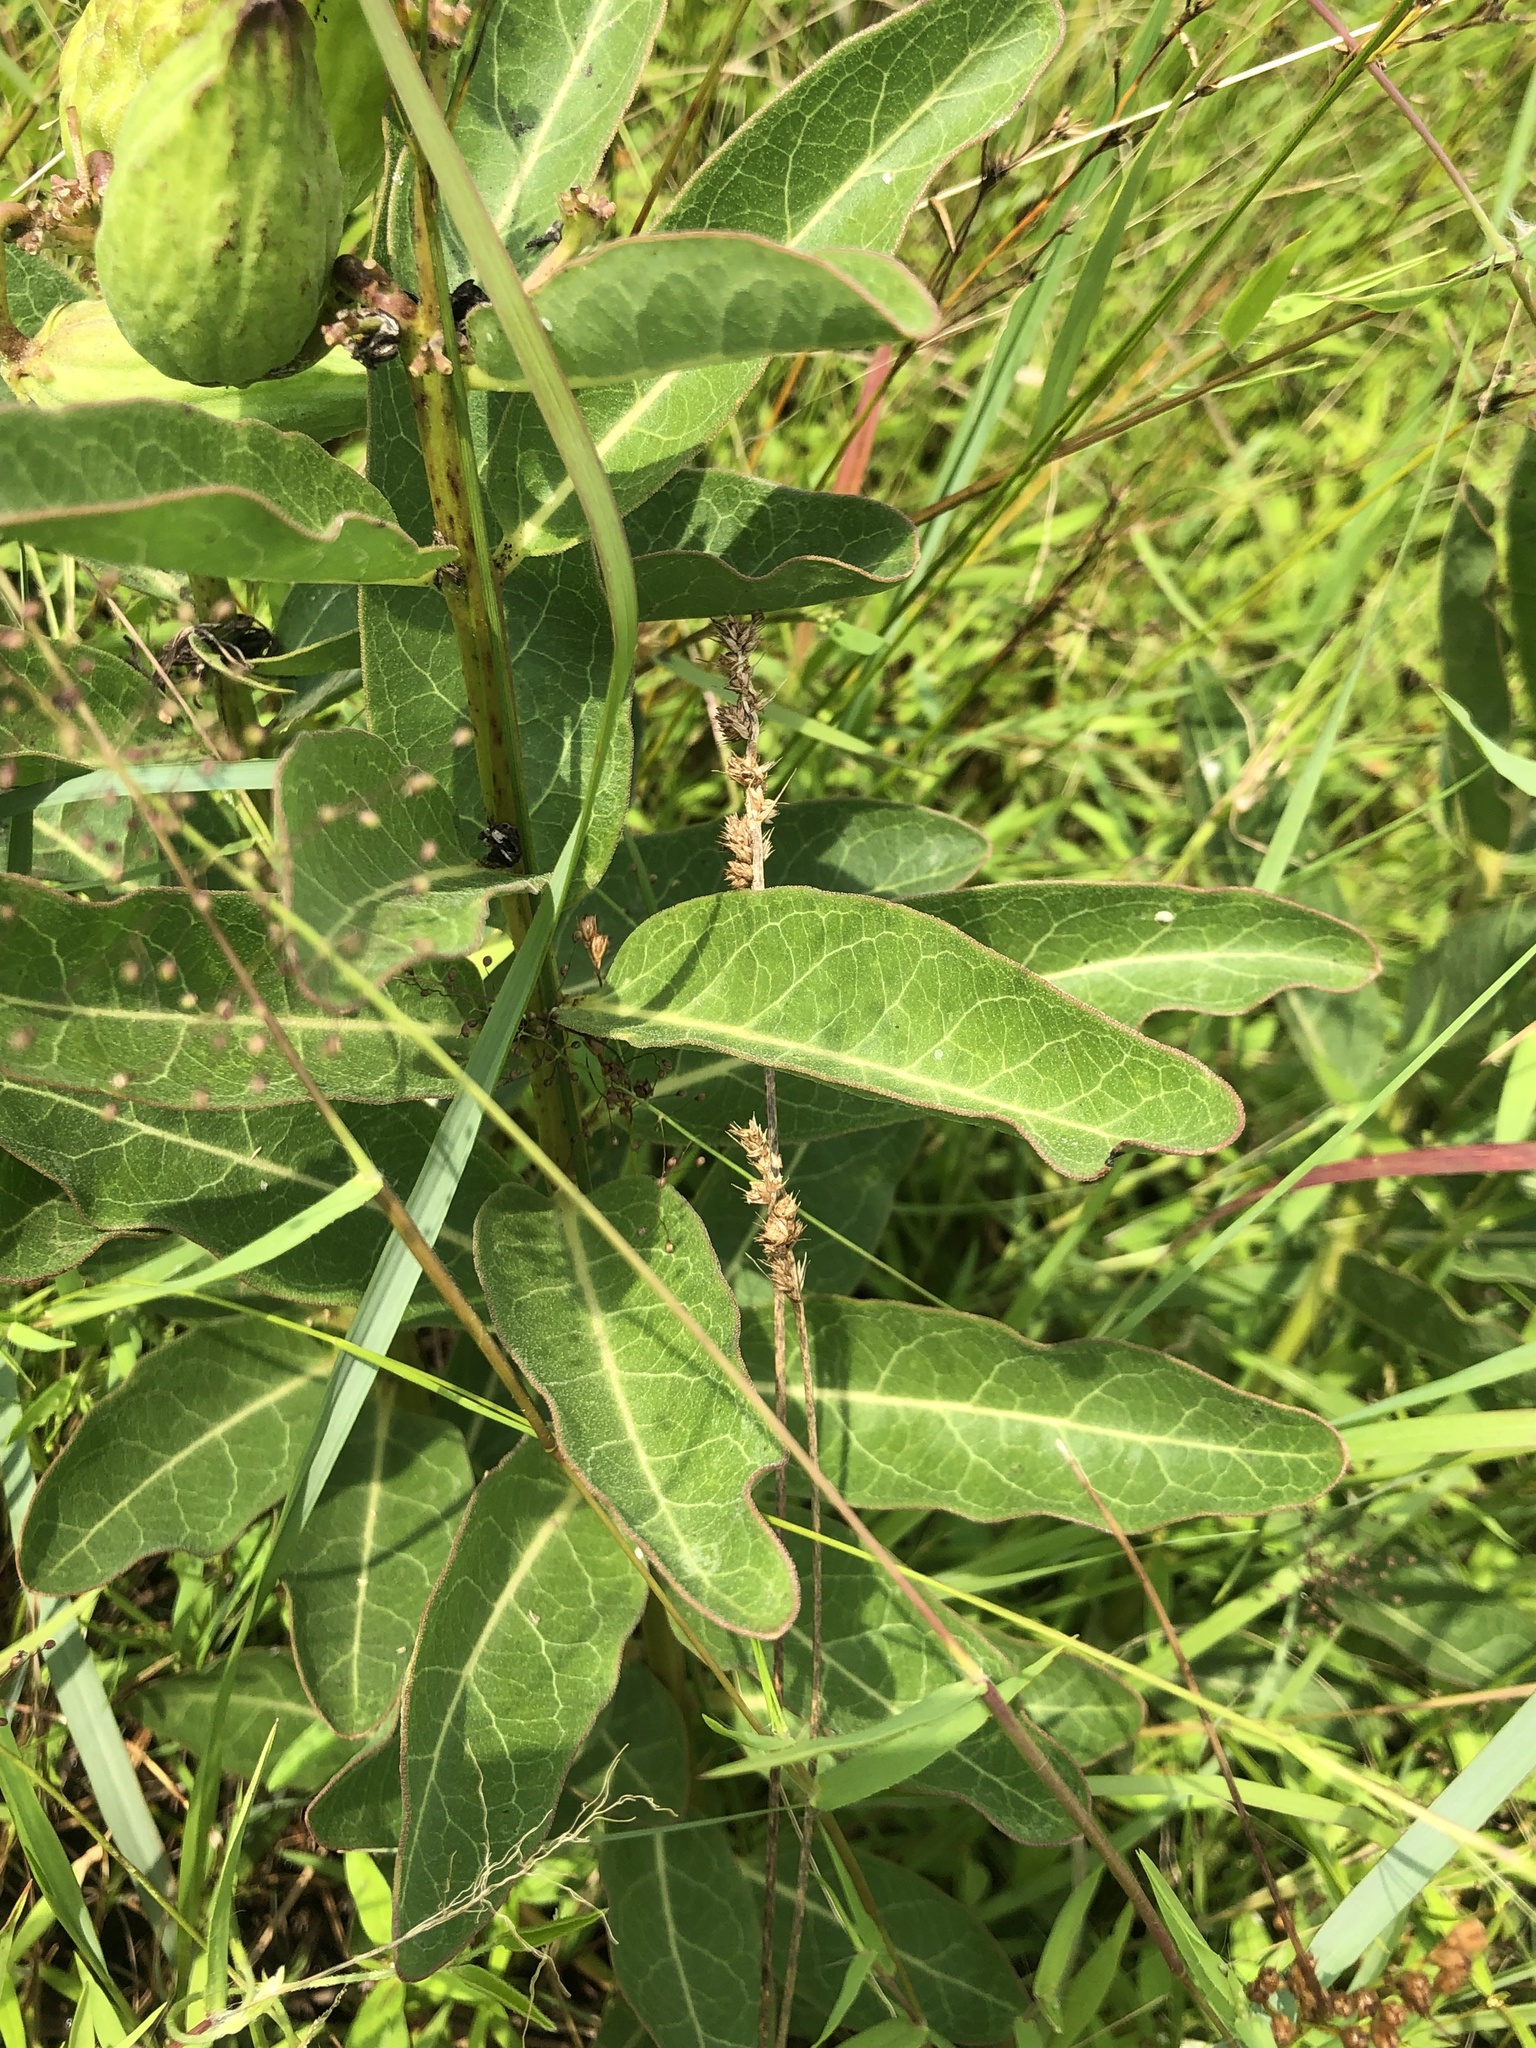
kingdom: Plantae
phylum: Tracheophyta
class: Magnoliopsida
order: Gentianales
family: Apocynaceae
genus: Asclepias
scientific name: Asclepias viridis
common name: Antelope-horns
